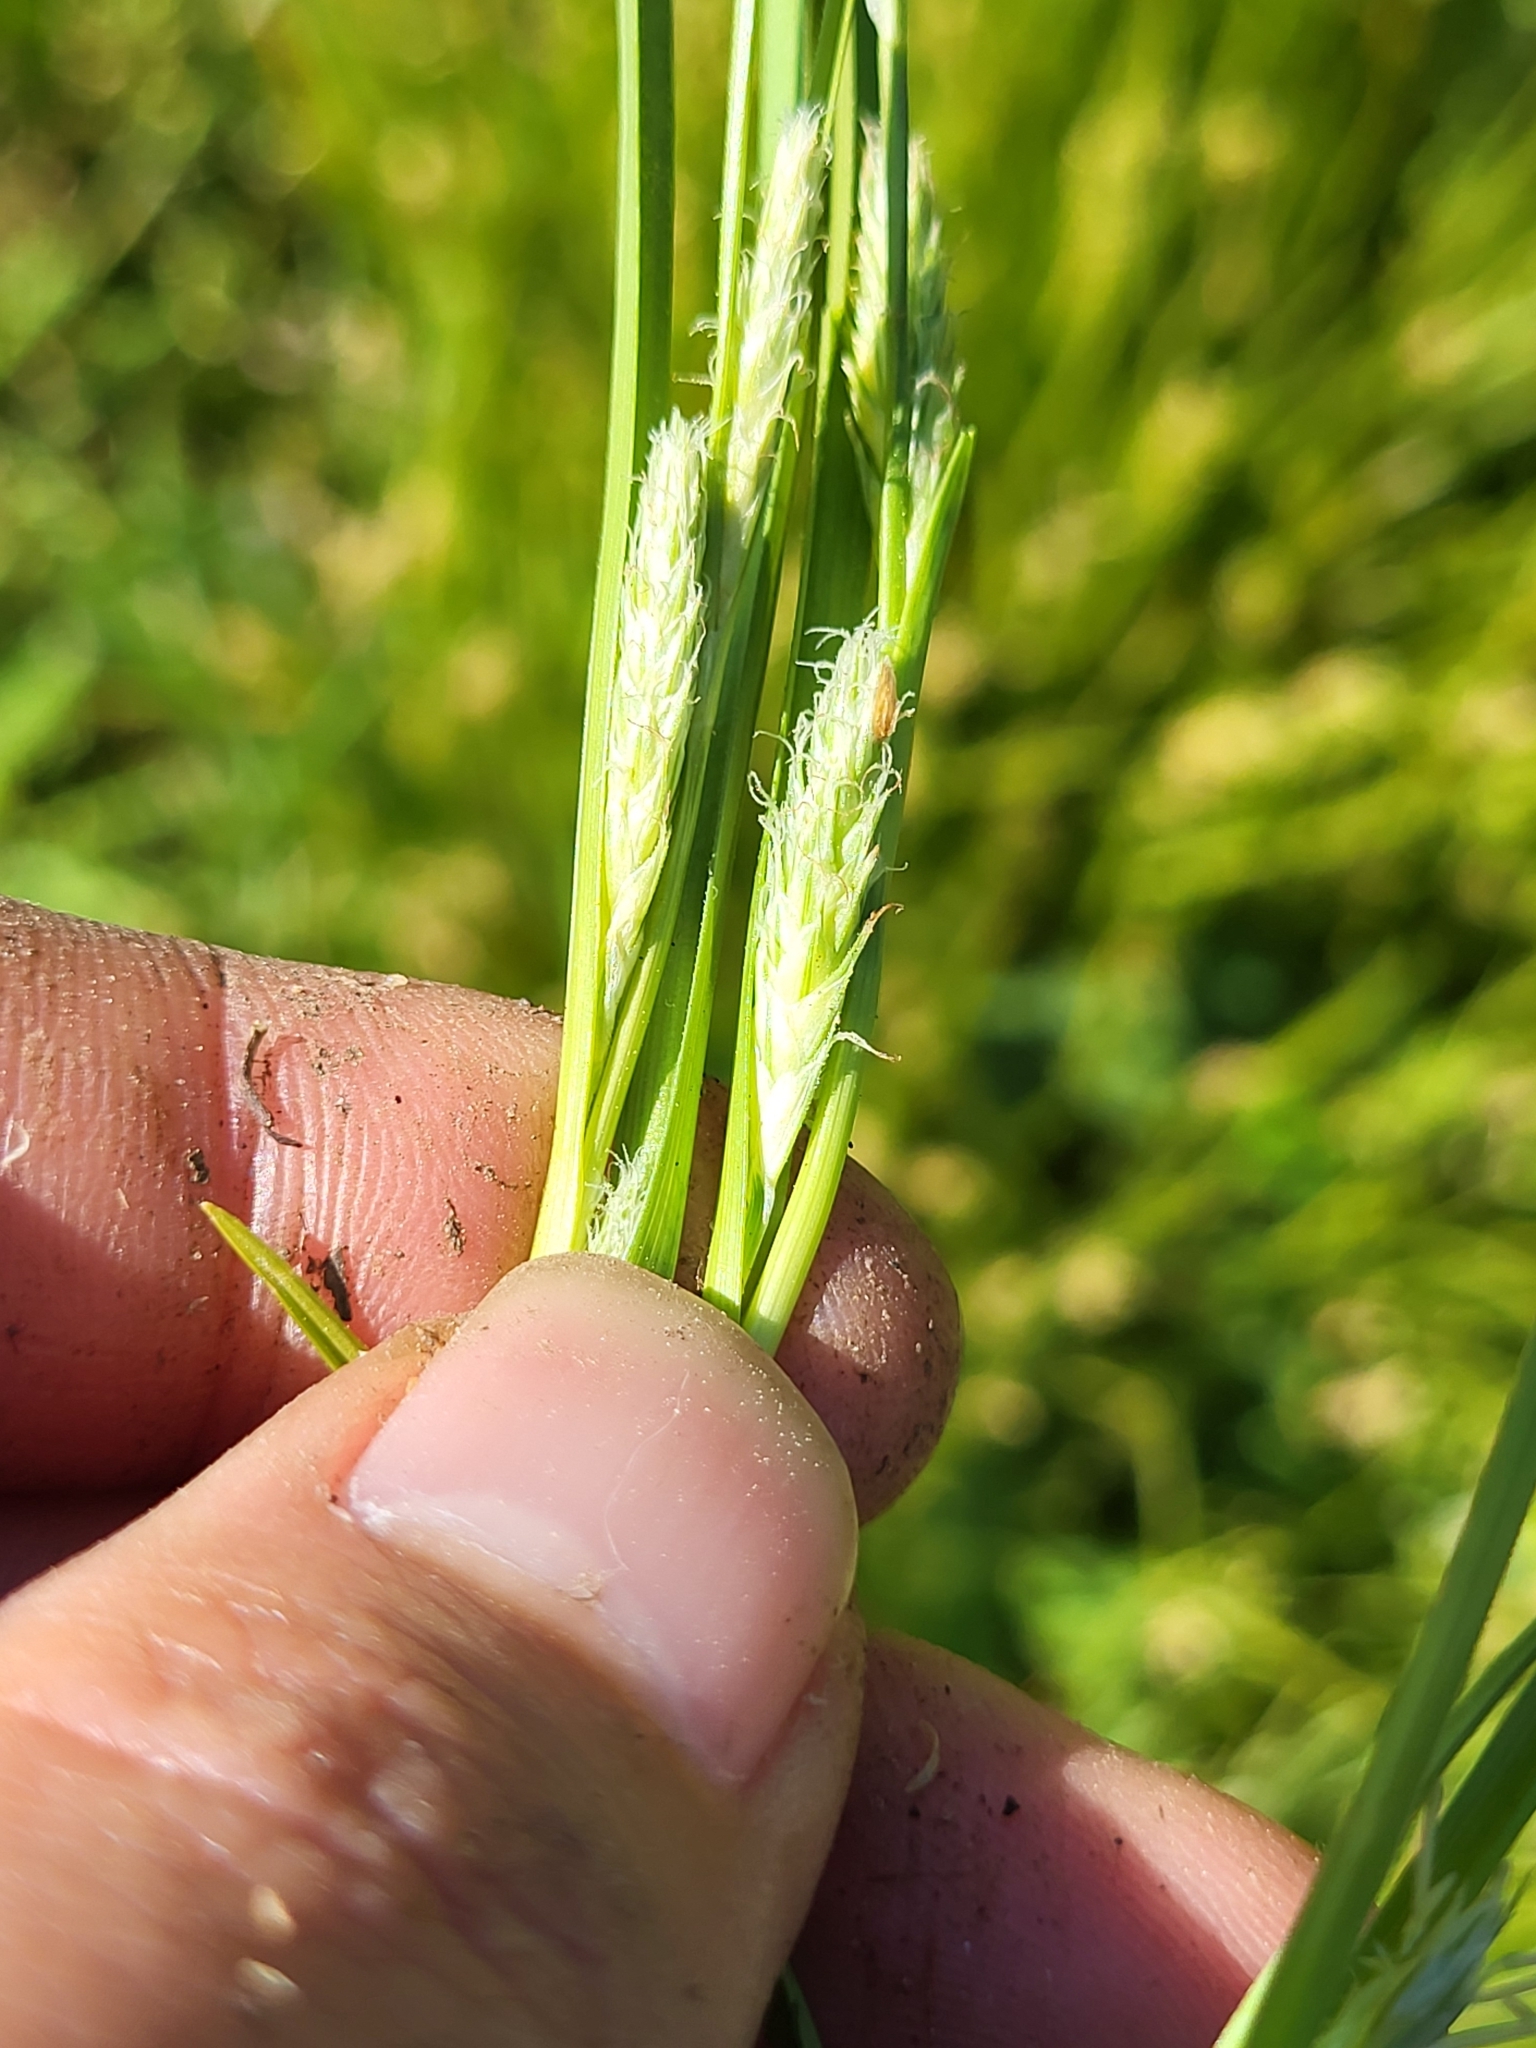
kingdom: Plantae
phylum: Tracheophyta
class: Liliopsida
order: Poales
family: Cyperaceae
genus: Carex
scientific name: Carex secalina
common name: Rye sedge
